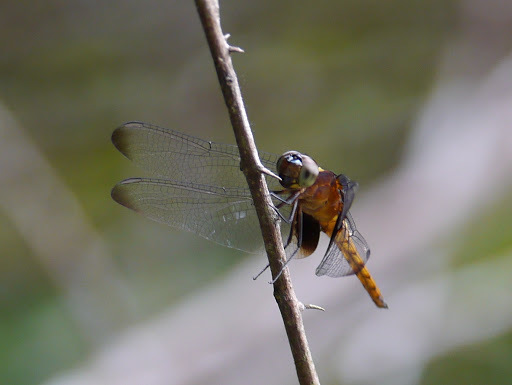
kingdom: Animalia
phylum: Arthropoda
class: Insecta
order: Odonata
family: Libellulidae
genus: Hadrothemis
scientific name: Hadrothemis defecta
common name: Scarlet jungleskimmer
